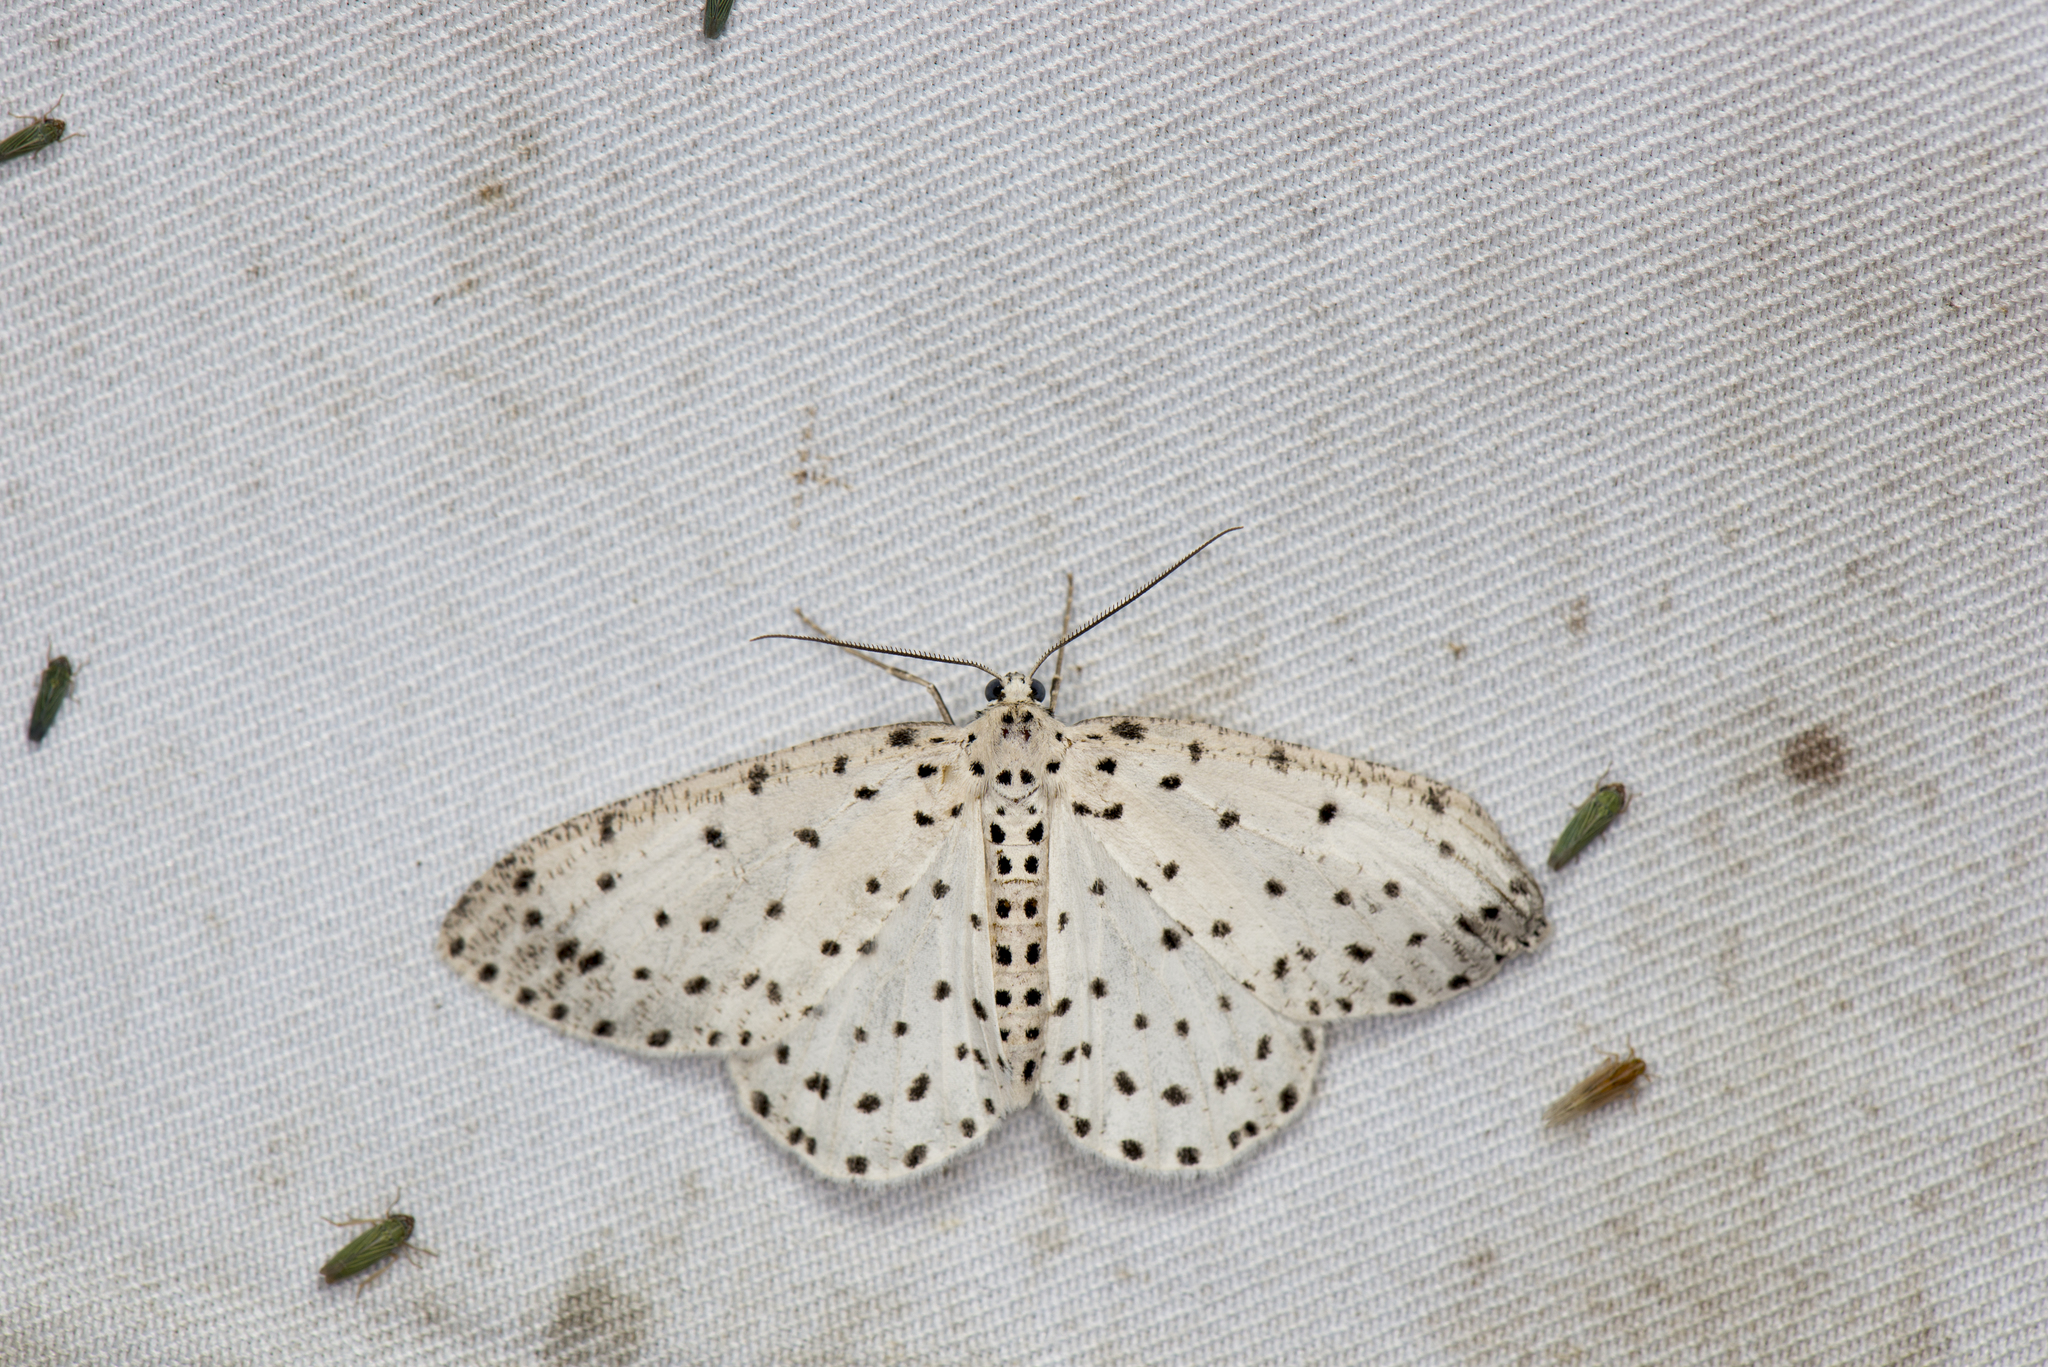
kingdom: Animalia
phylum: Arthropoda
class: Insecta
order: Lepidoptera
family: Geometridae
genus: Xenoplia
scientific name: Xenoplia trivialis
